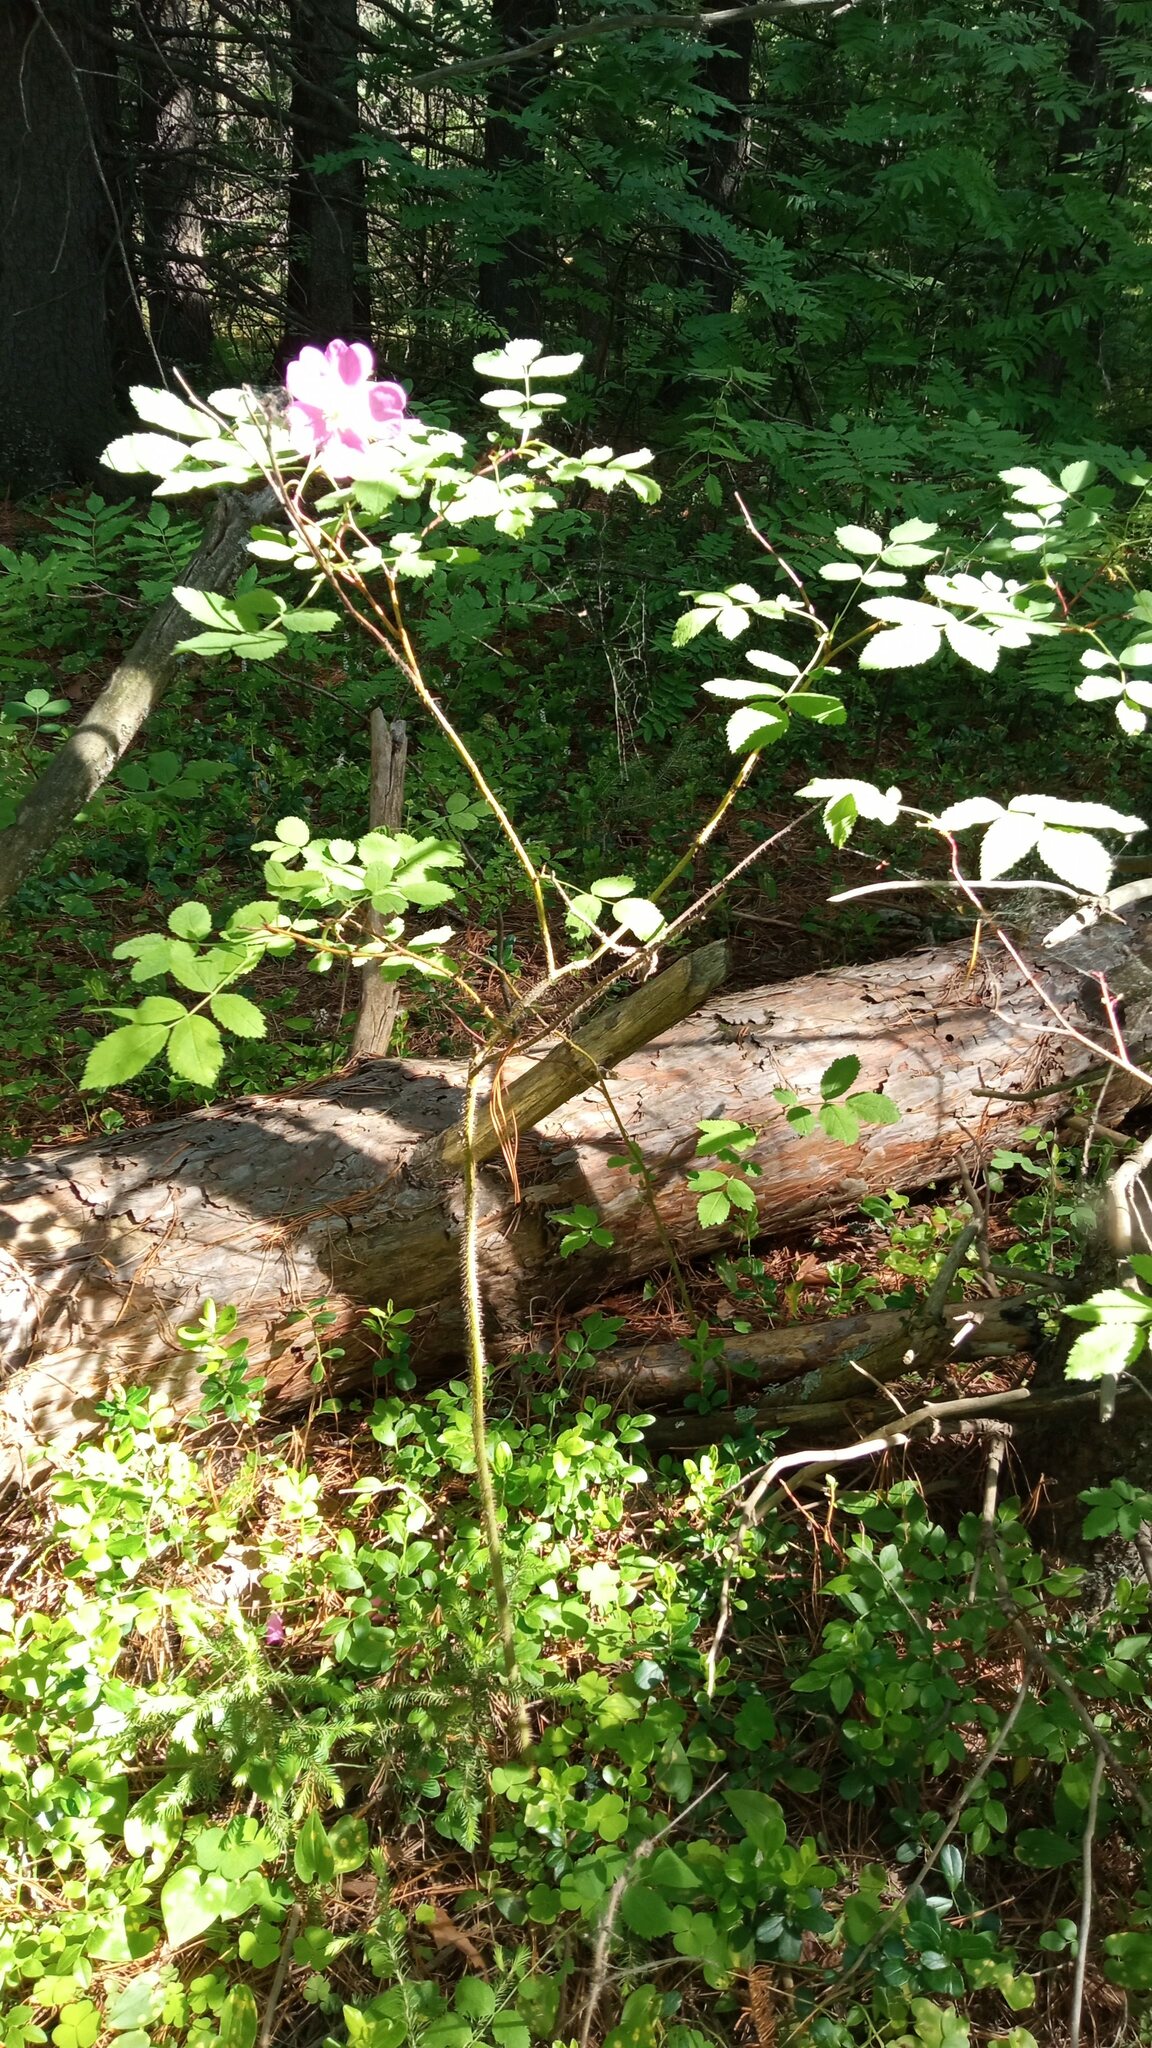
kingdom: Plantae
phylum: Tracheophyta
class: Magnoliopsida
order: Rosales
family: Rosaceae
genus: Rosa
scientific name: Rosa acicularis
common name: Prickly rose
